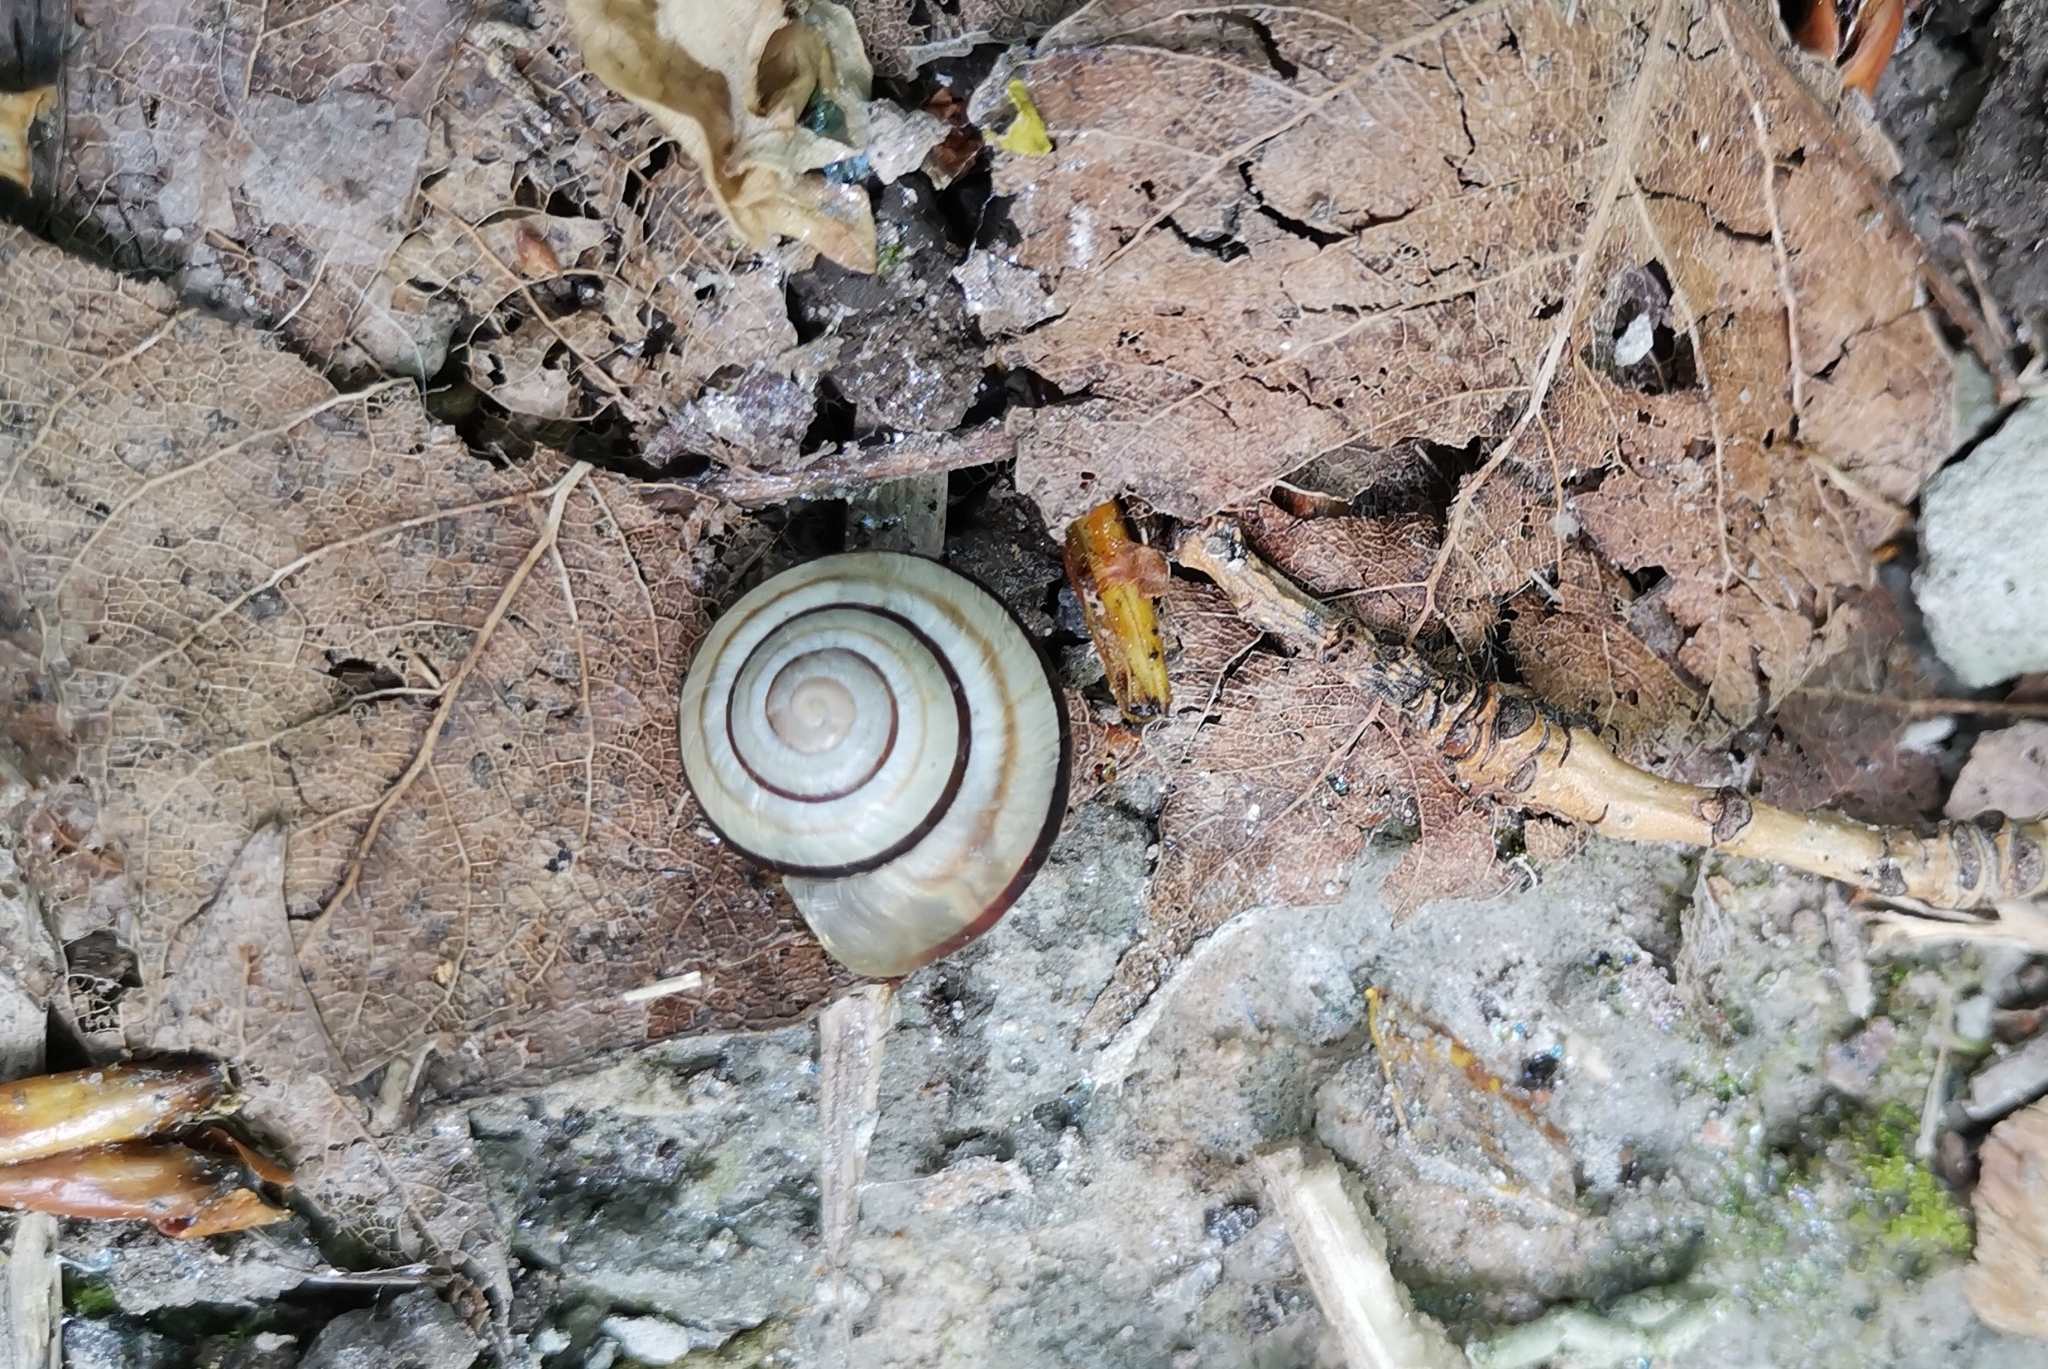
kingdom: Animalia
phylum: Mollusca
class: Gastropoda
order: Stylommatophora
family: Helicidae
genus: Caucasotachea
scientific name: Caucasotachea vindobonensis
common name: European helicid land snail
